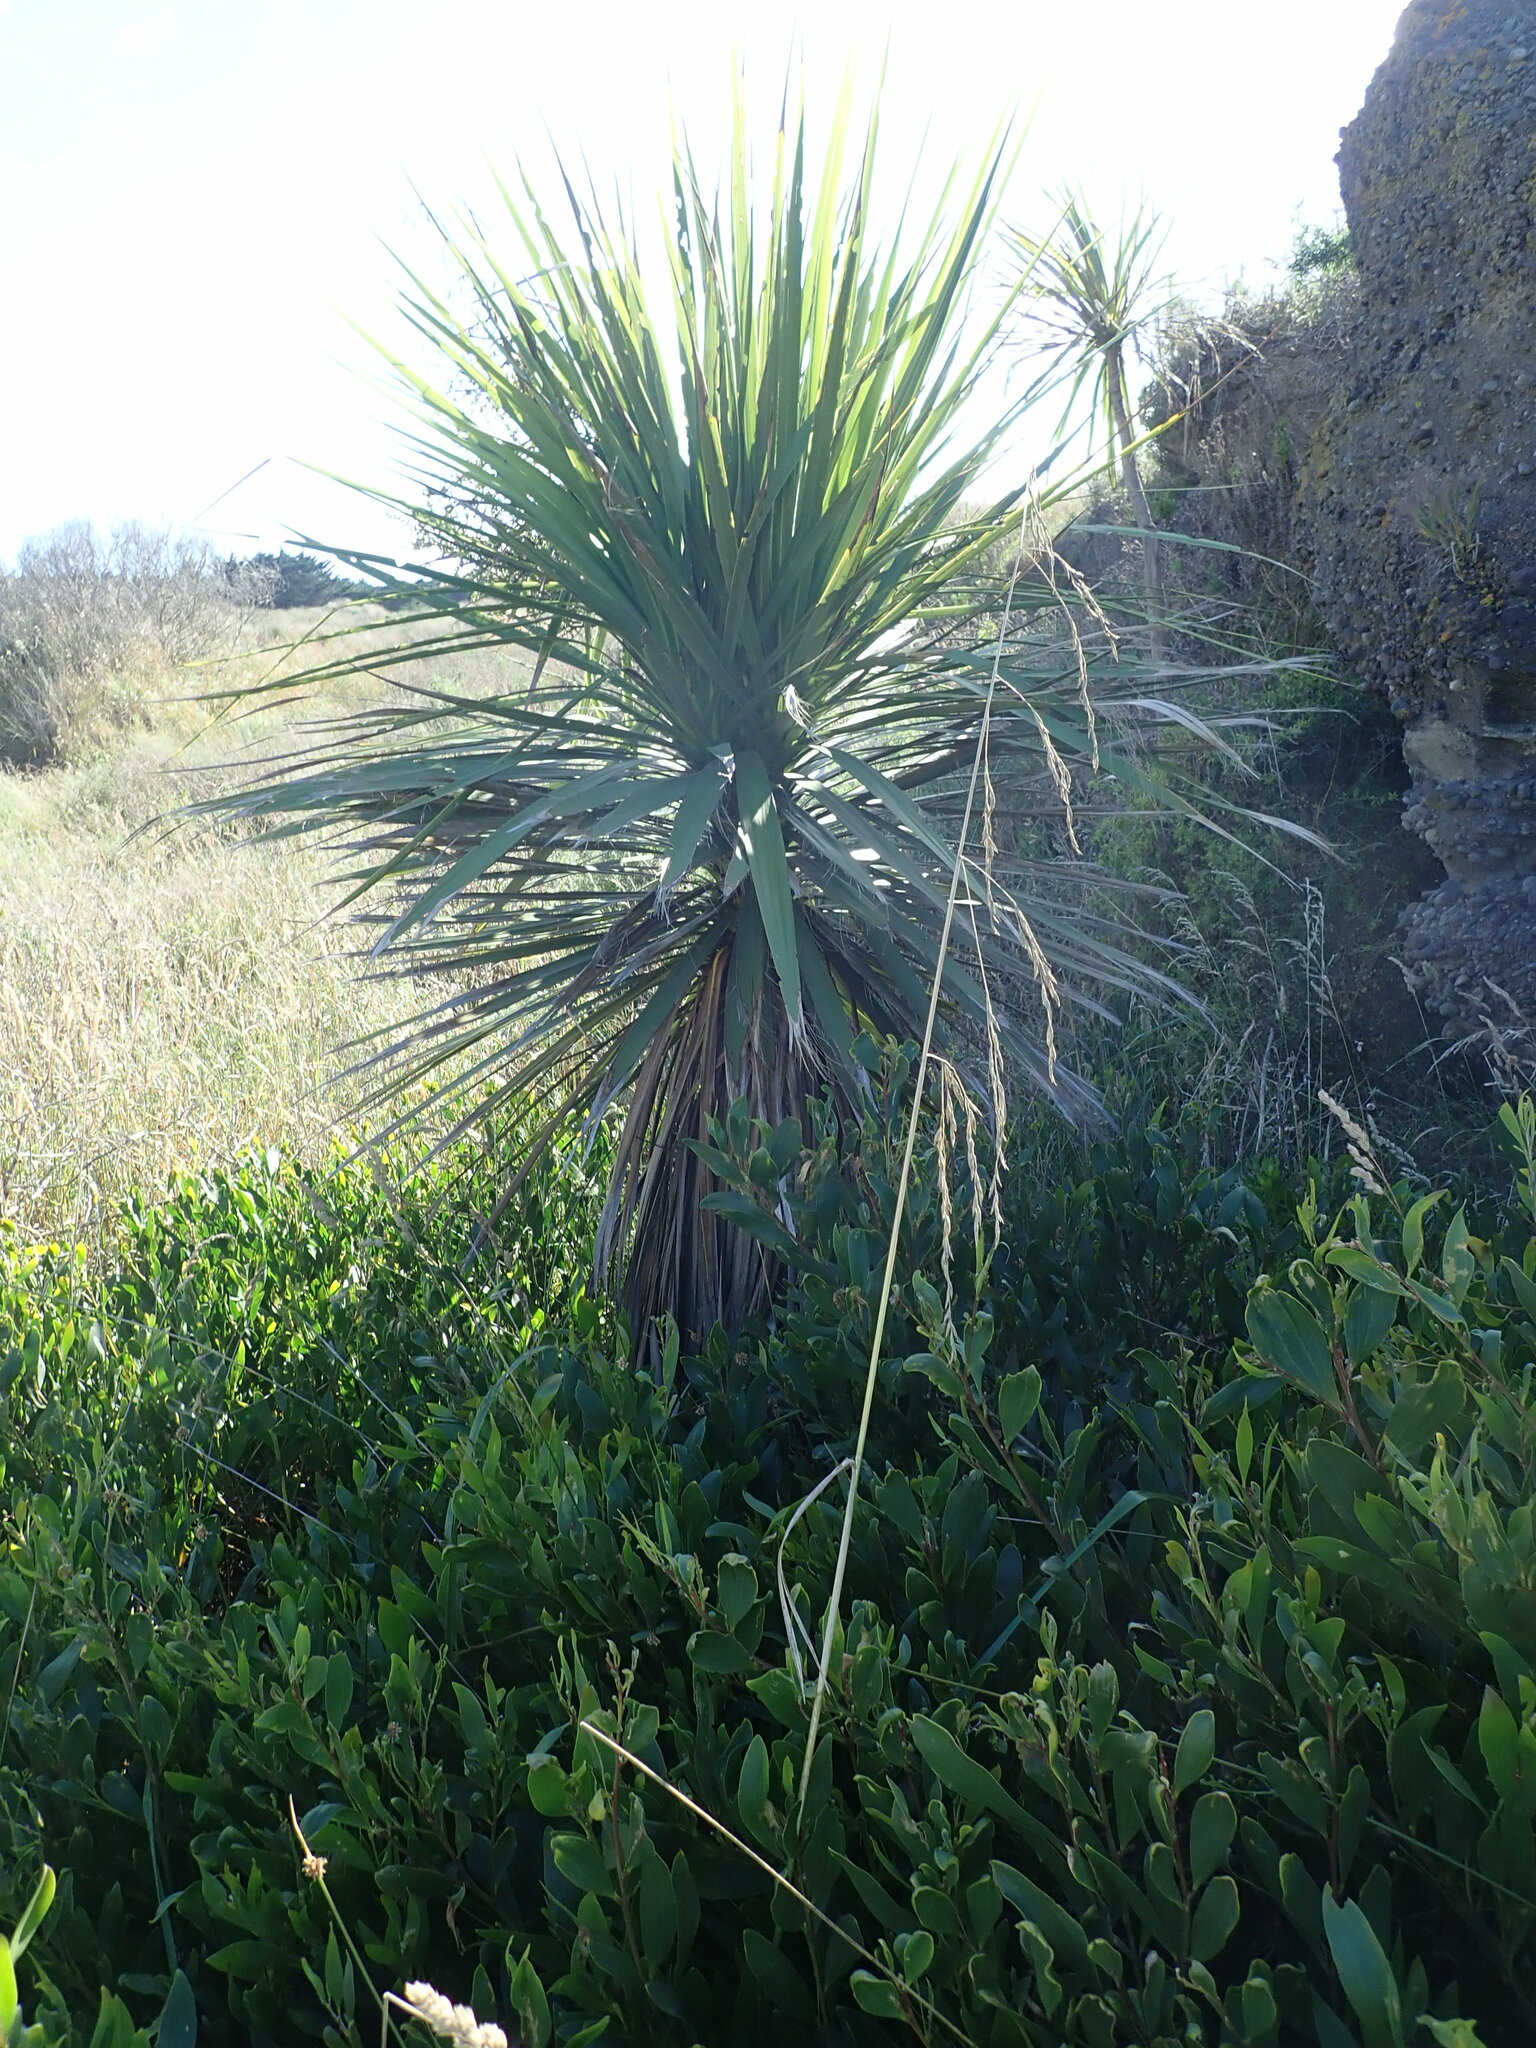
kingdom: Plantae
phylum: Tracheophyta
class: Magnoliopsida
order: Fabales
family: Fabaceae
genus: Acacia
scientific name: Acacia longifolia
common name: Sydney golden wattle
